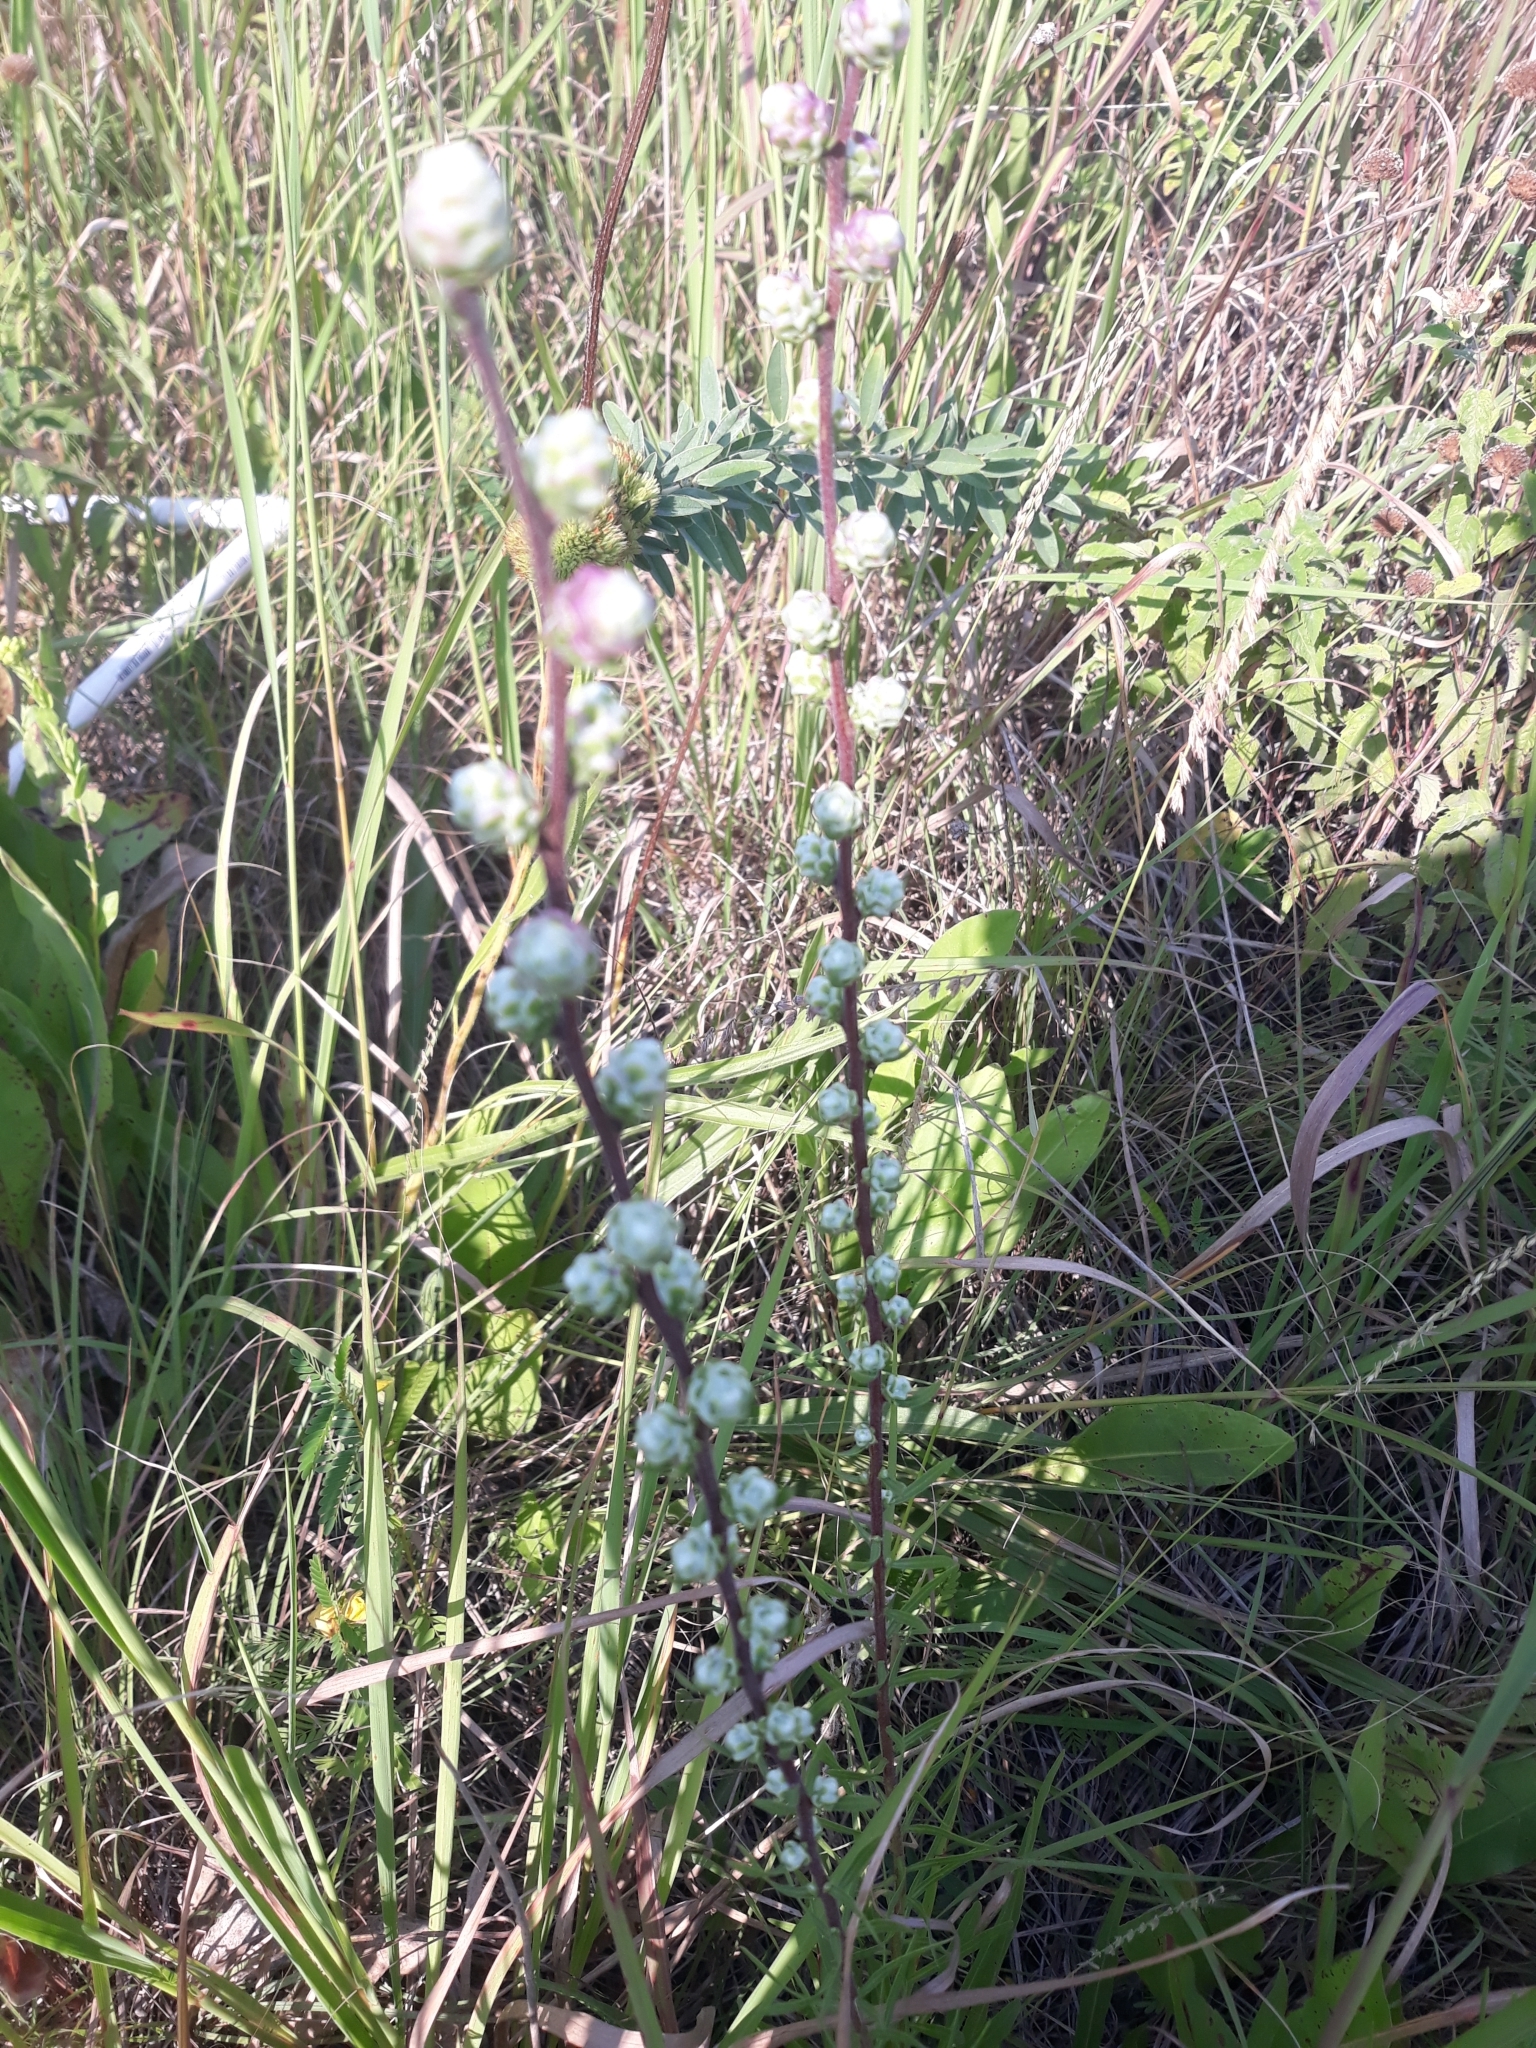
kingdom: Plantae
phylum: Tracheophyta
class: Magnoliopsida
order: Asterales
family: Asteraceae
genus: Liatris
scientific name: Liatris aspera
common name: Lacerate blazing-star
